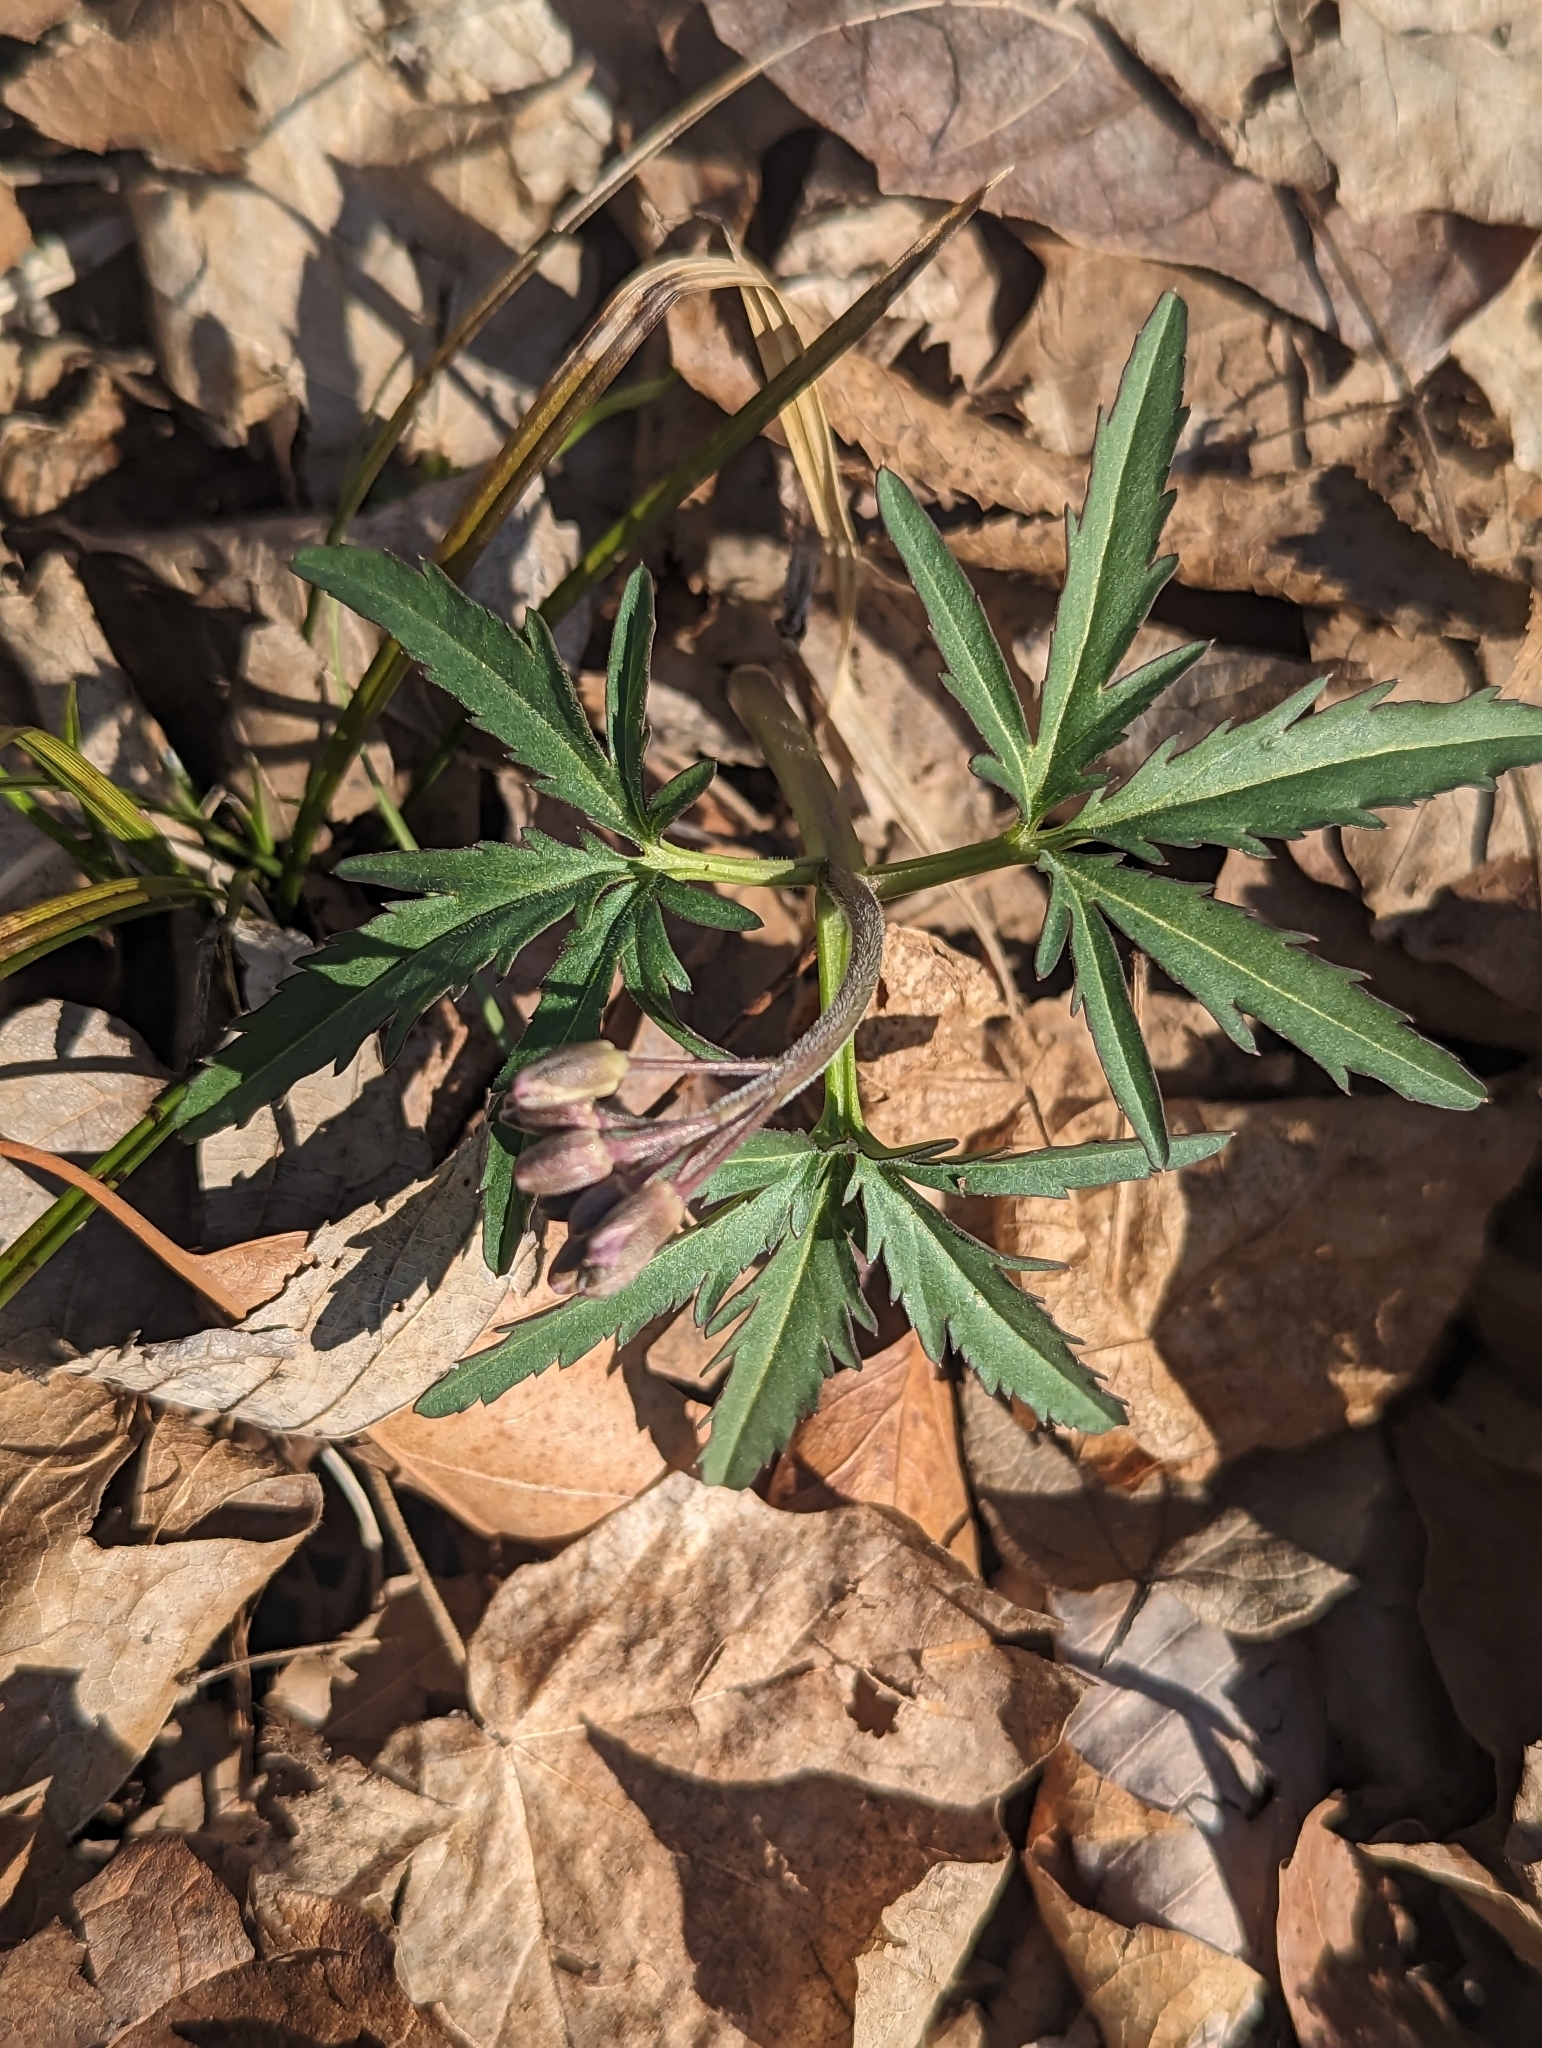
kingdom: Plantae
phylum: Tracheophyta
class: Magnoliopsida
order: Brassicales
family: Brassicaceae
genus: Cardamine
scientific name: Cardamine concatenata
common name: Cut-leaf toothcup
